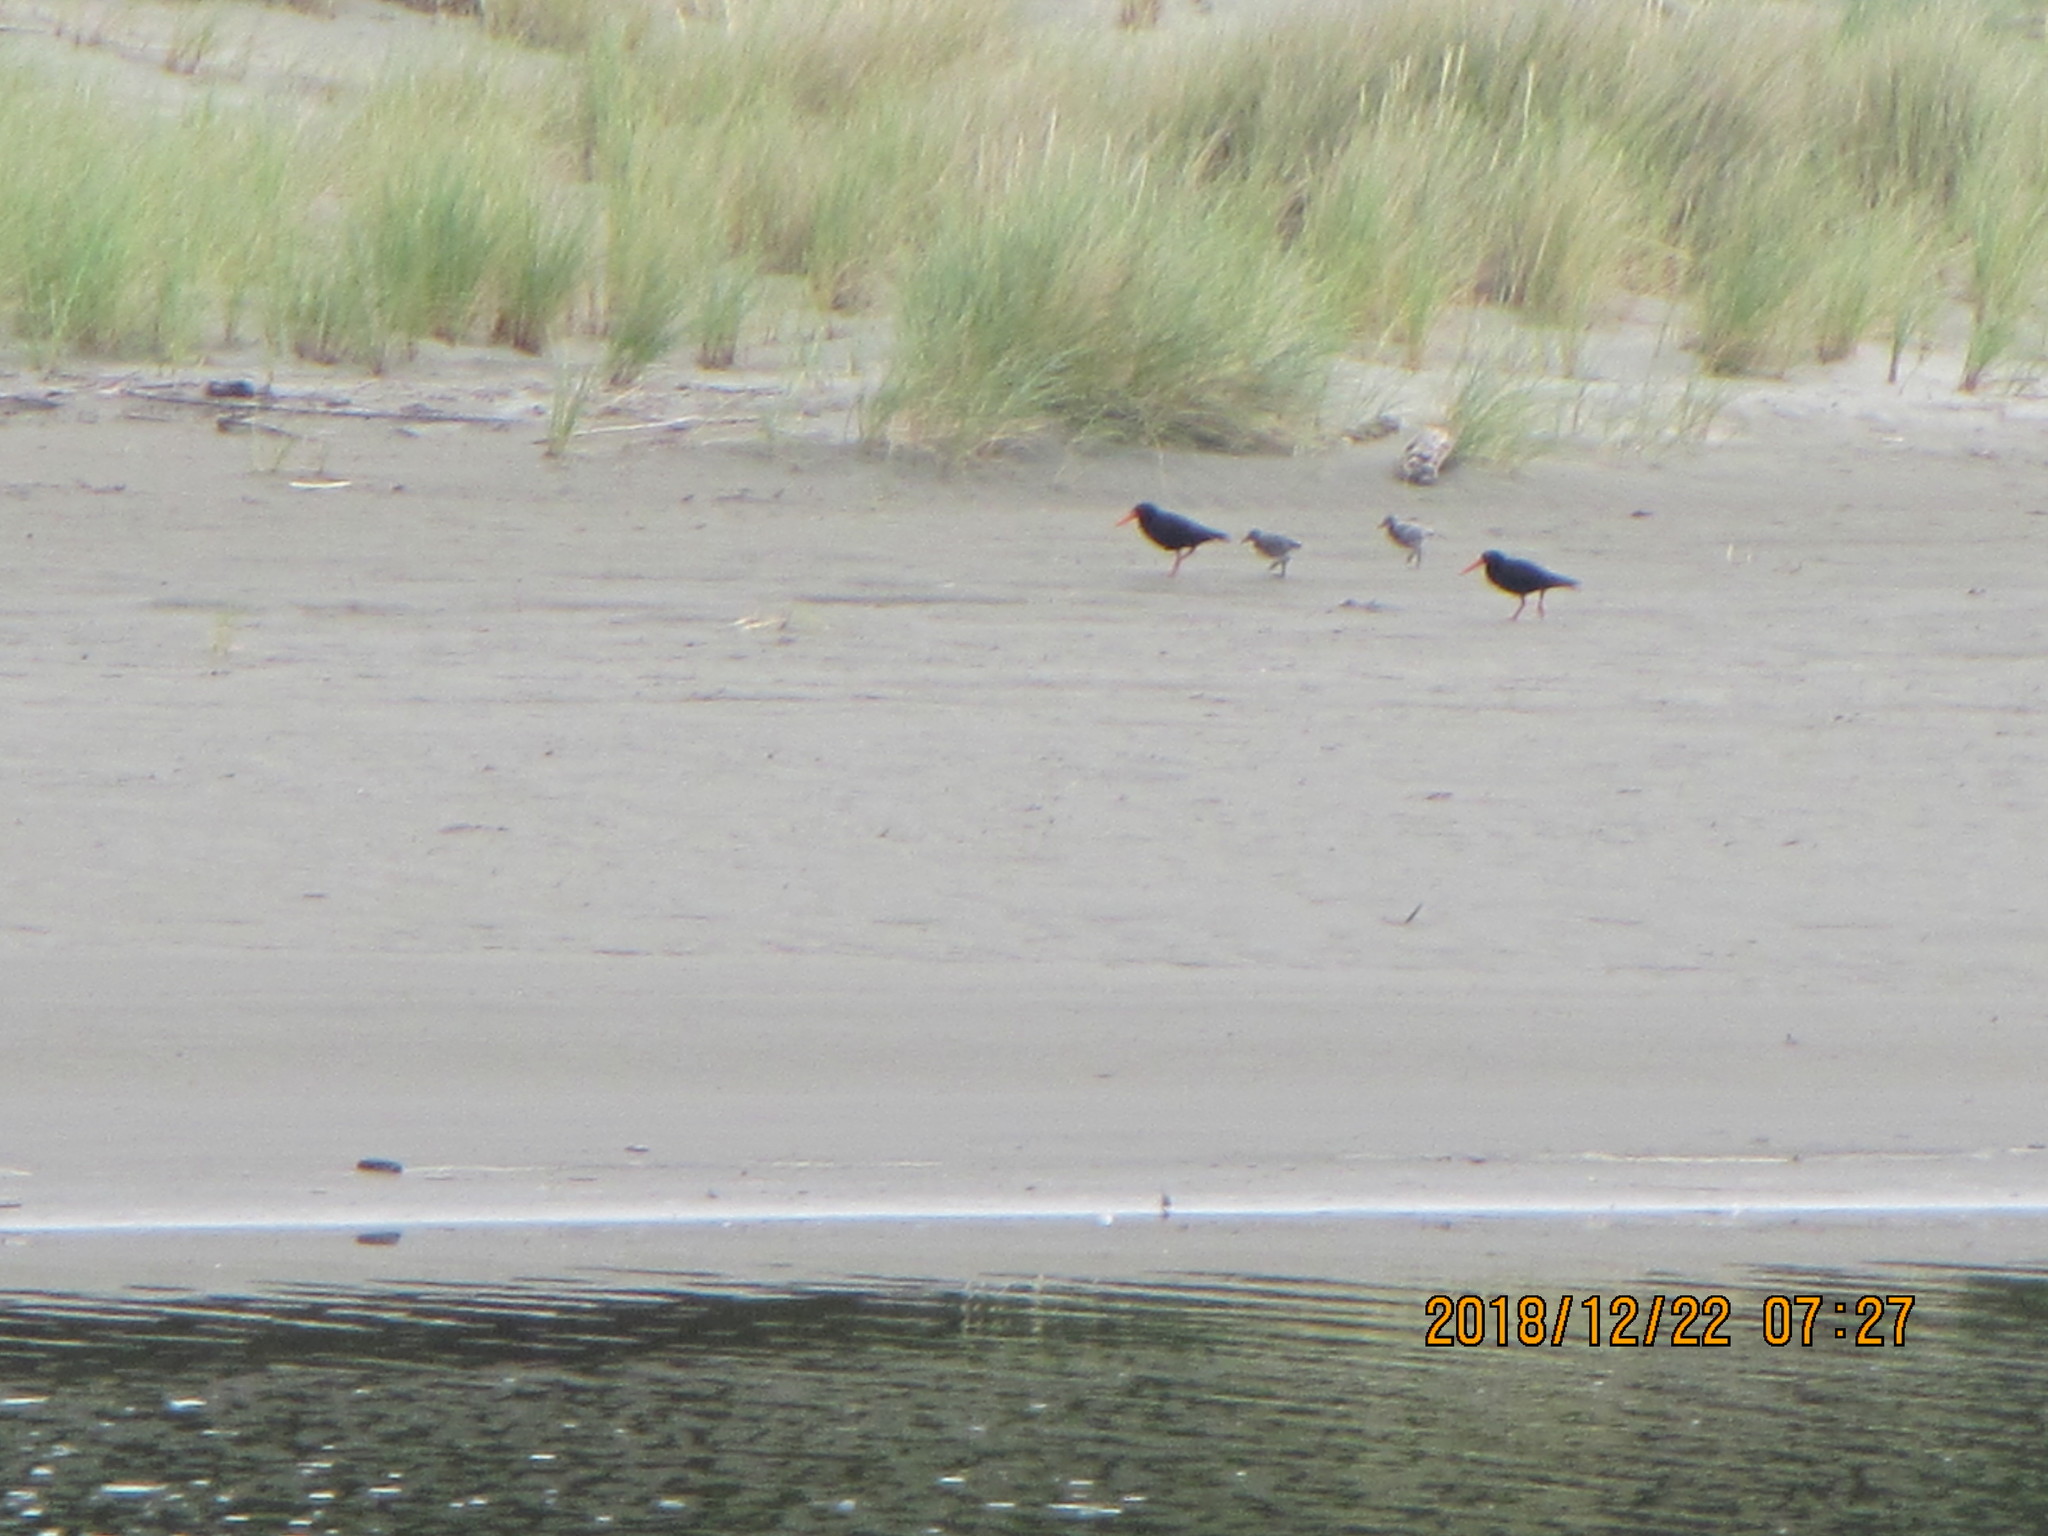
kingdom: Animalia
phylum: Chordata
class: Aves
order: Charadriiformes
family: Haematopodidae
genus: Haematopus
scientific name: Haematopus unicolor
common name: Variable oystercatcher
